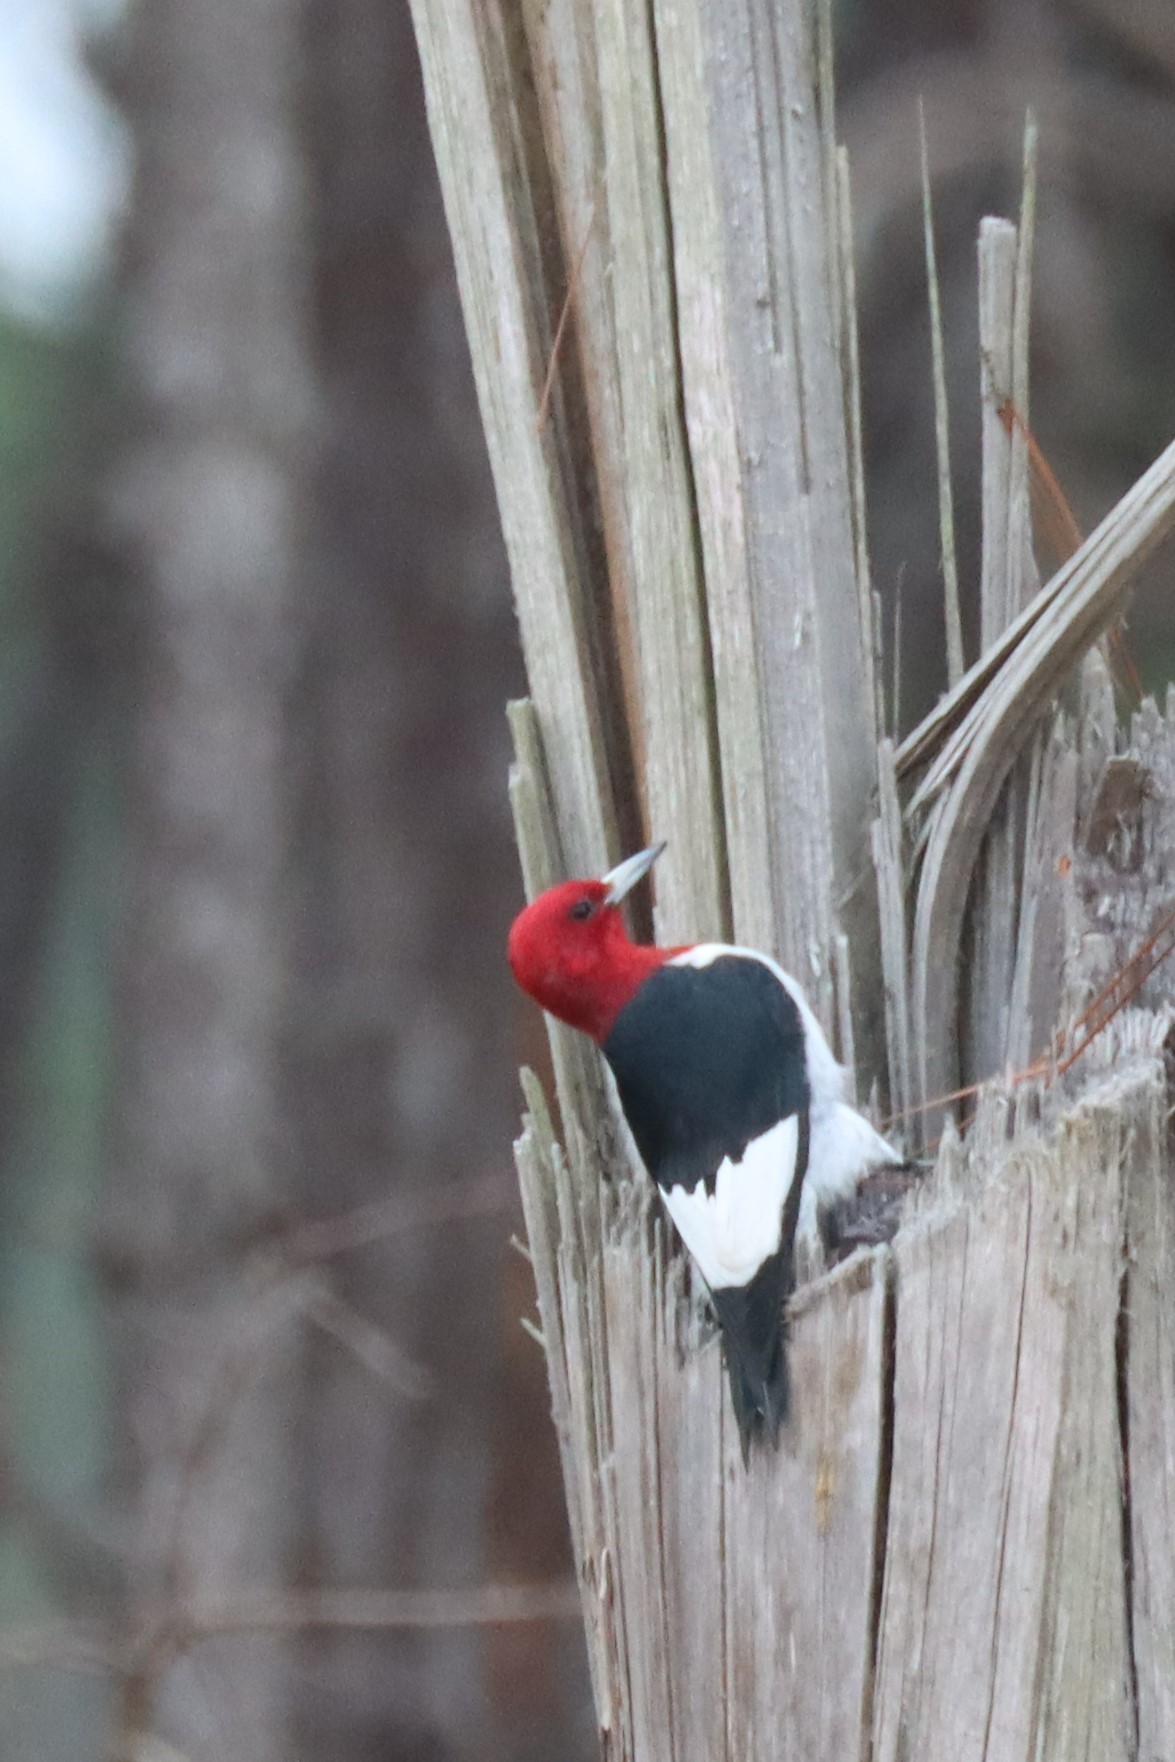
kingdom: Animalia
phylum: Chordata
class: Aves
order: Piciformes
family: Picidae
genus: Melanerpes
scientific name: Melanerpes erythrocephalus
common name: Red-headed woodpecker
